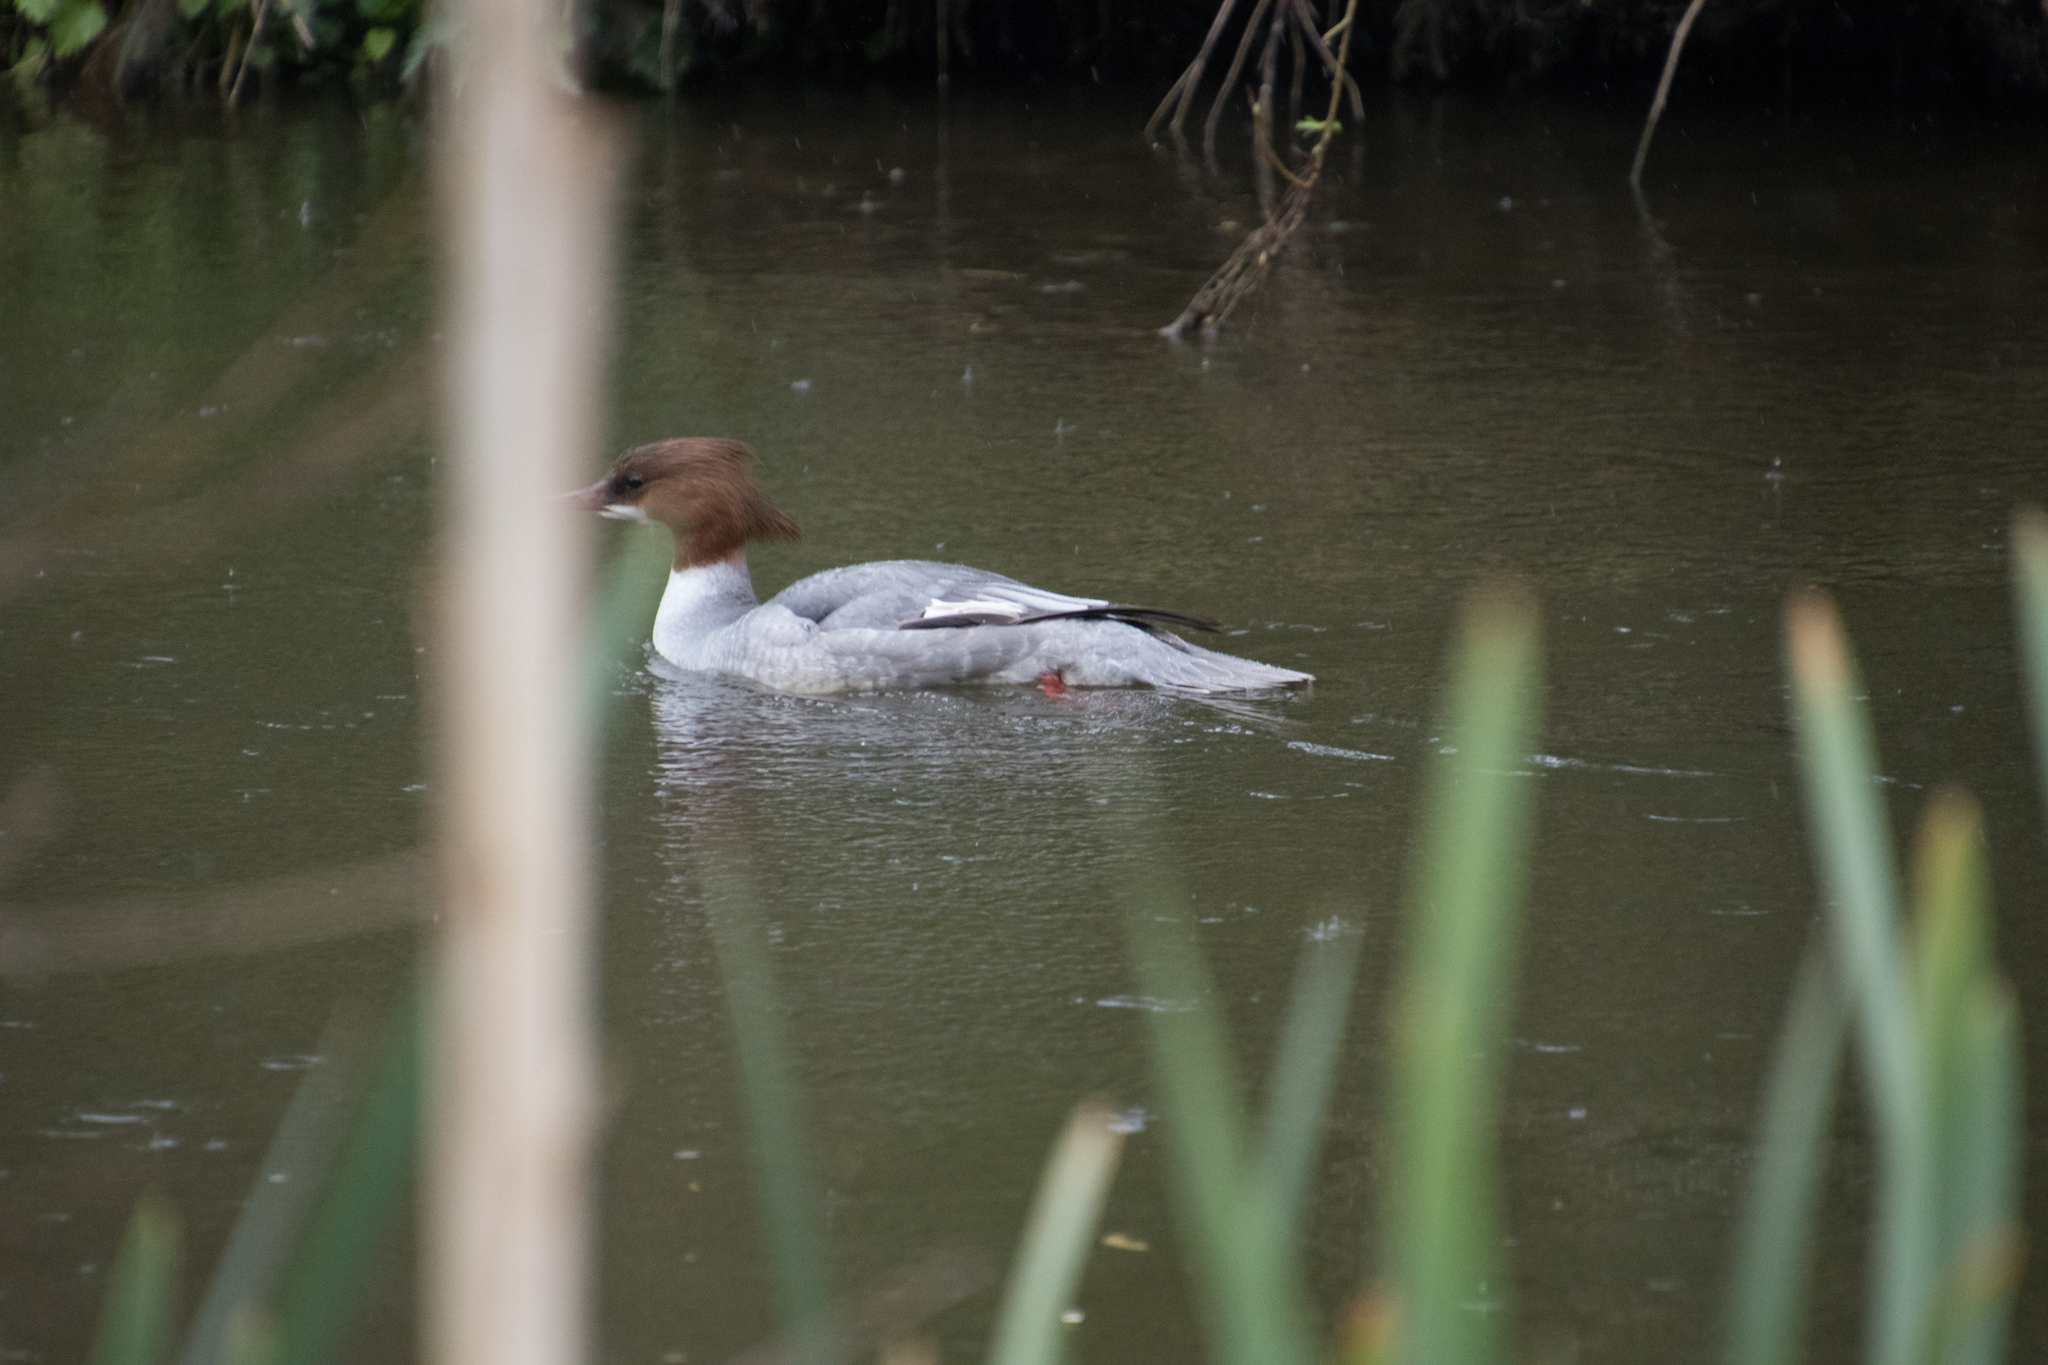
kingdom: Animalia
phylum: Chordata
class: Aves
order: Anseriformes
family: Anatidae
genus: Mergus
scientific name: Mergus merganser
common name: Common merganser
